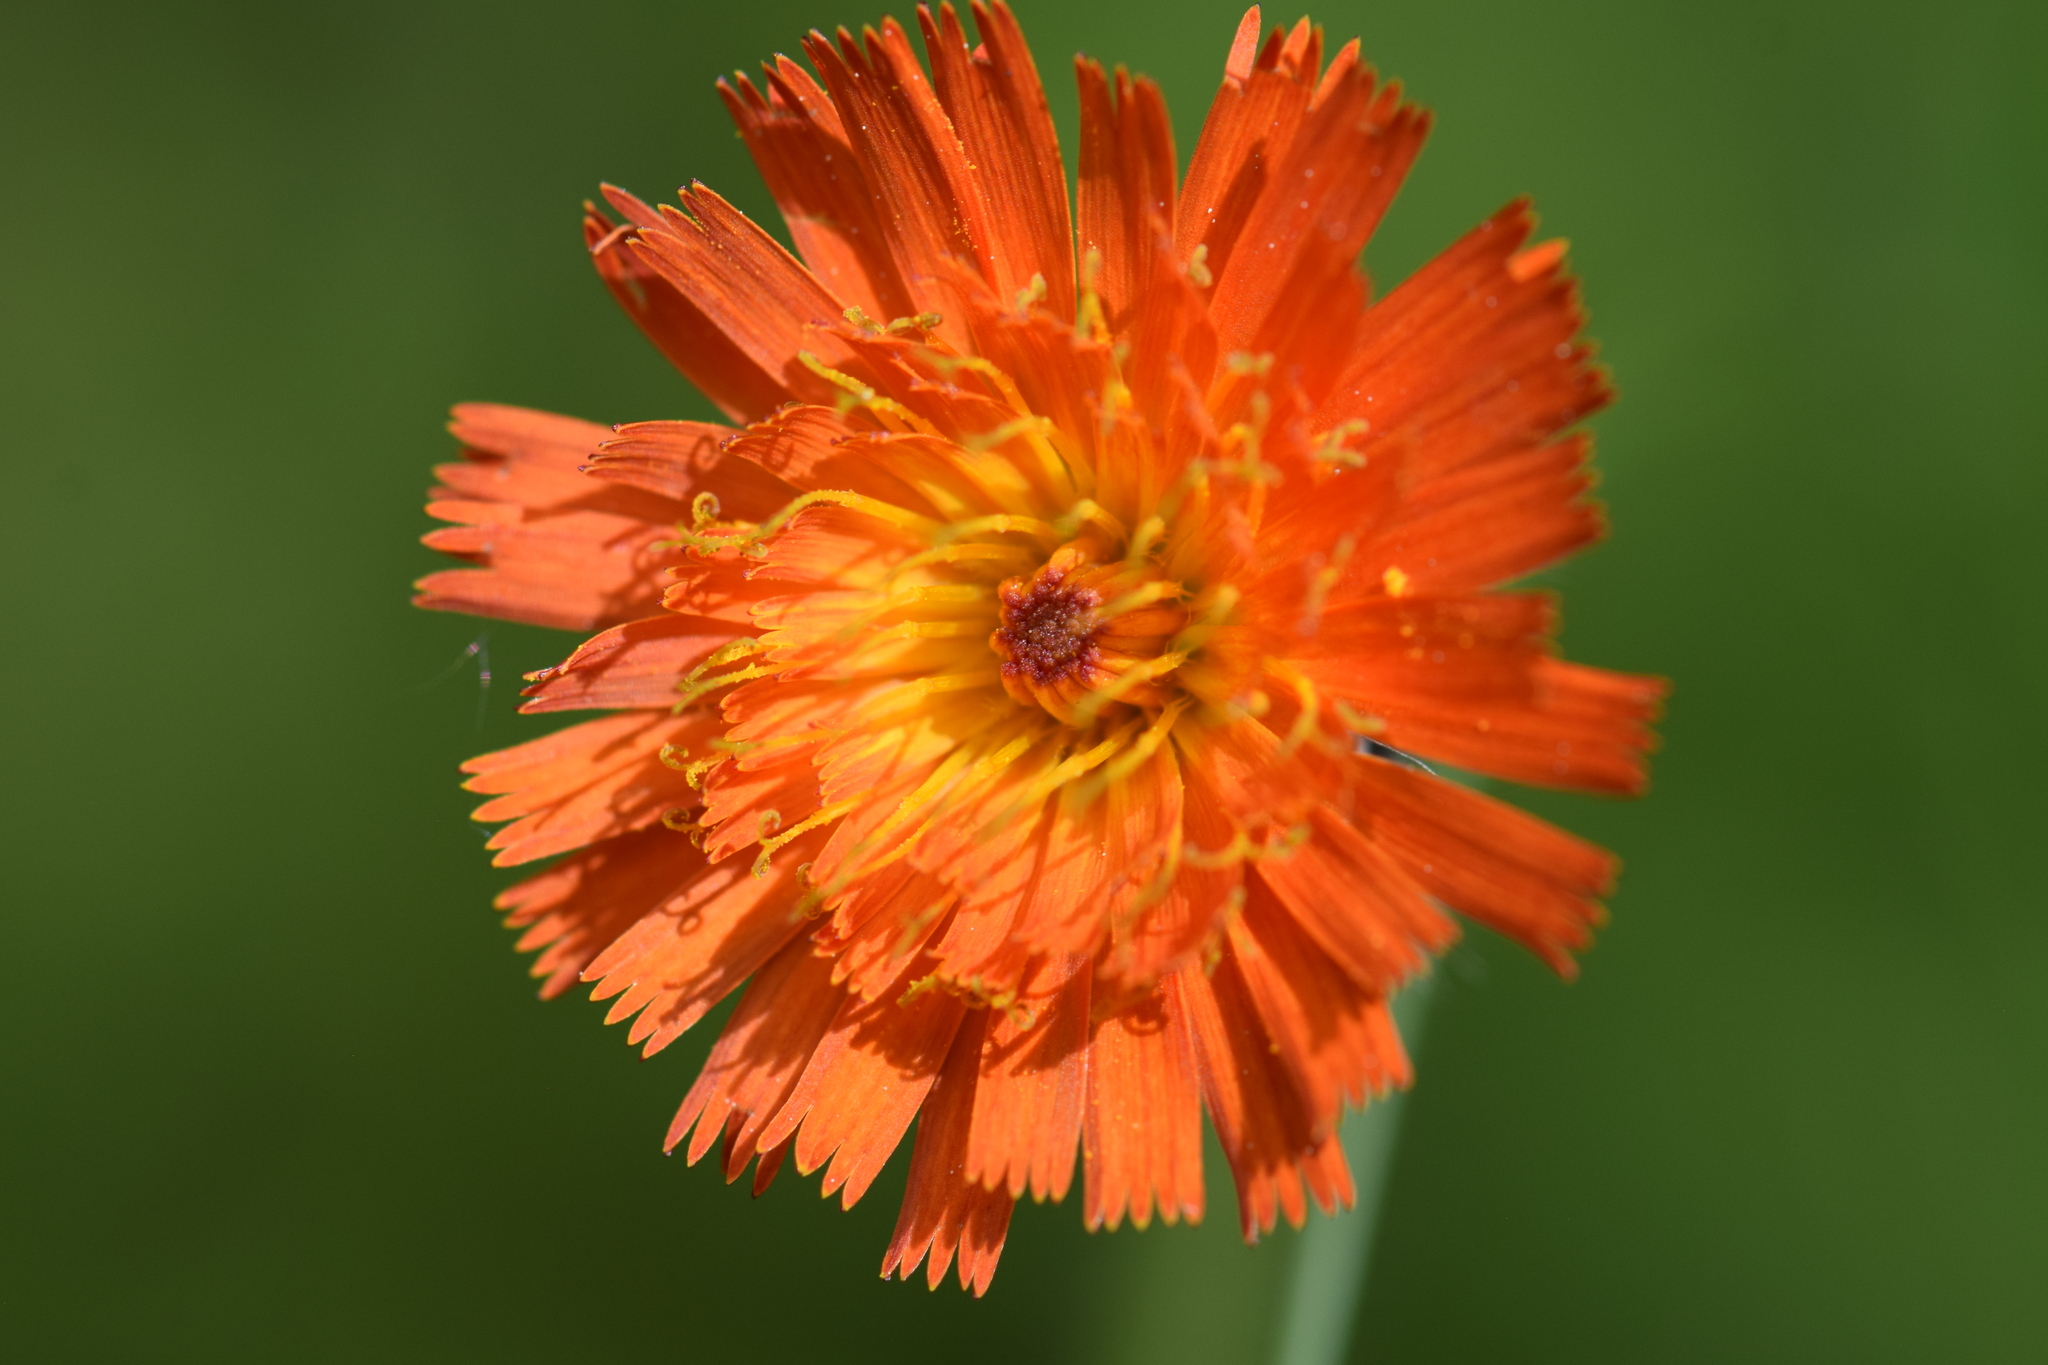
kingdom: Plantae
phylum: Tracheophyta
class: Magnoliopsida
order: Asterales
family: Asteraceae
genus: Pilosella
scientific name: Pilosella aurantiaca
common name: Fox-and-cubs
